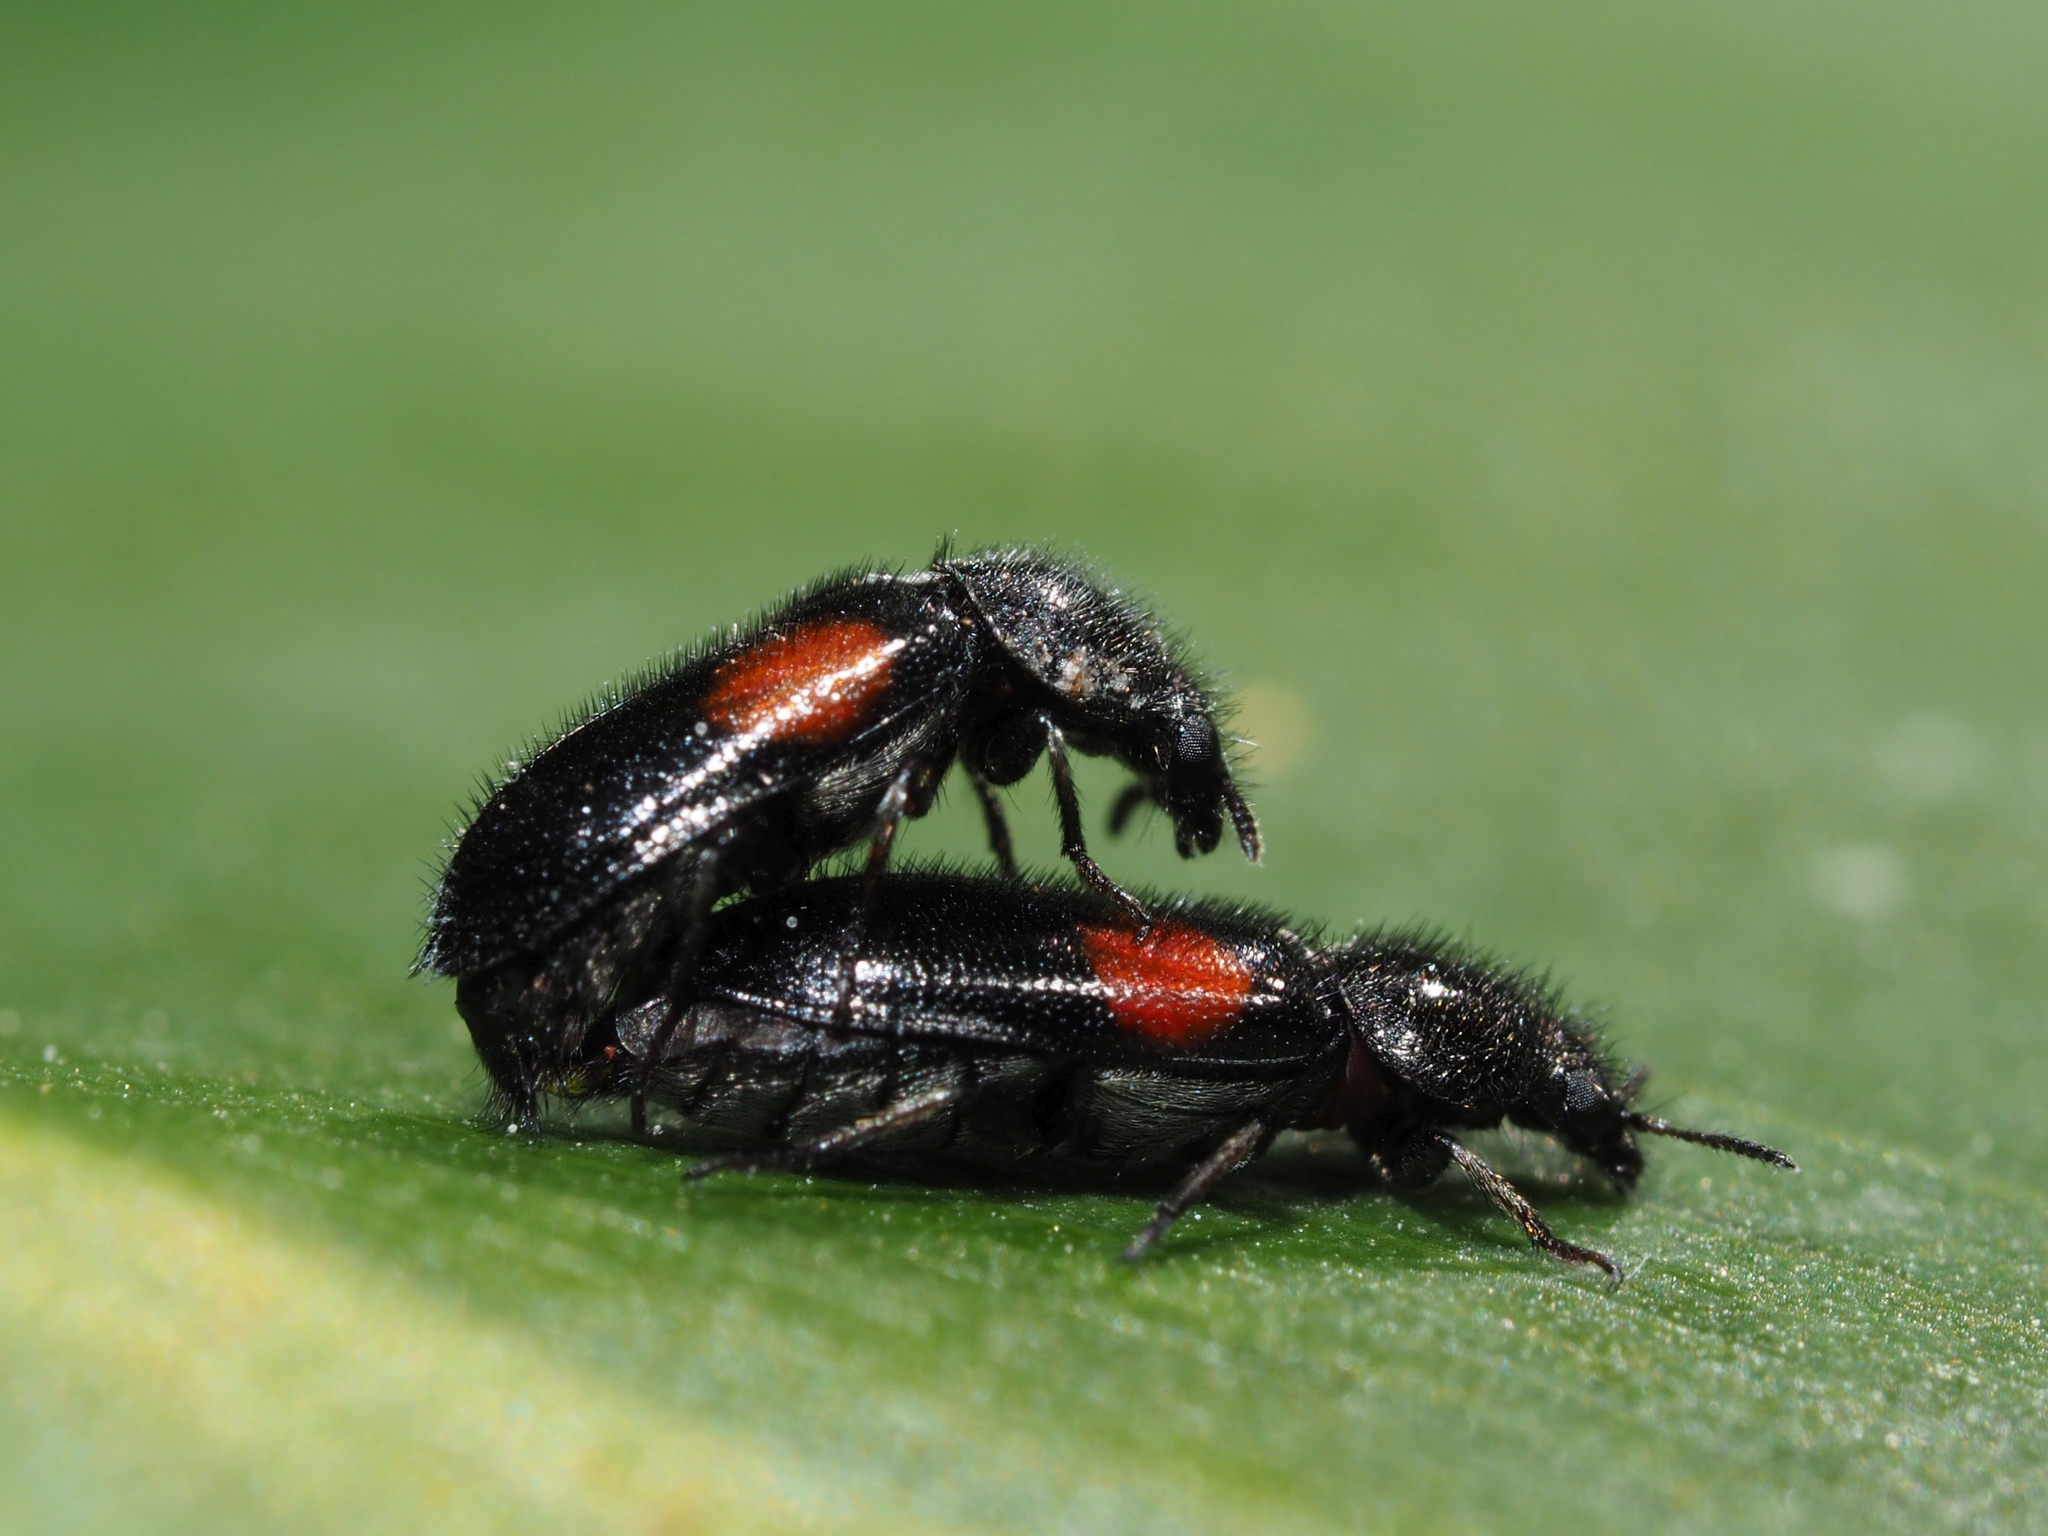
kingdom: Animalia
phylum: Arthropoda
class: Insecta
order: Coleoptera
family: Melyridae
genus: Divales
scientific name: Divales bipustulatus
